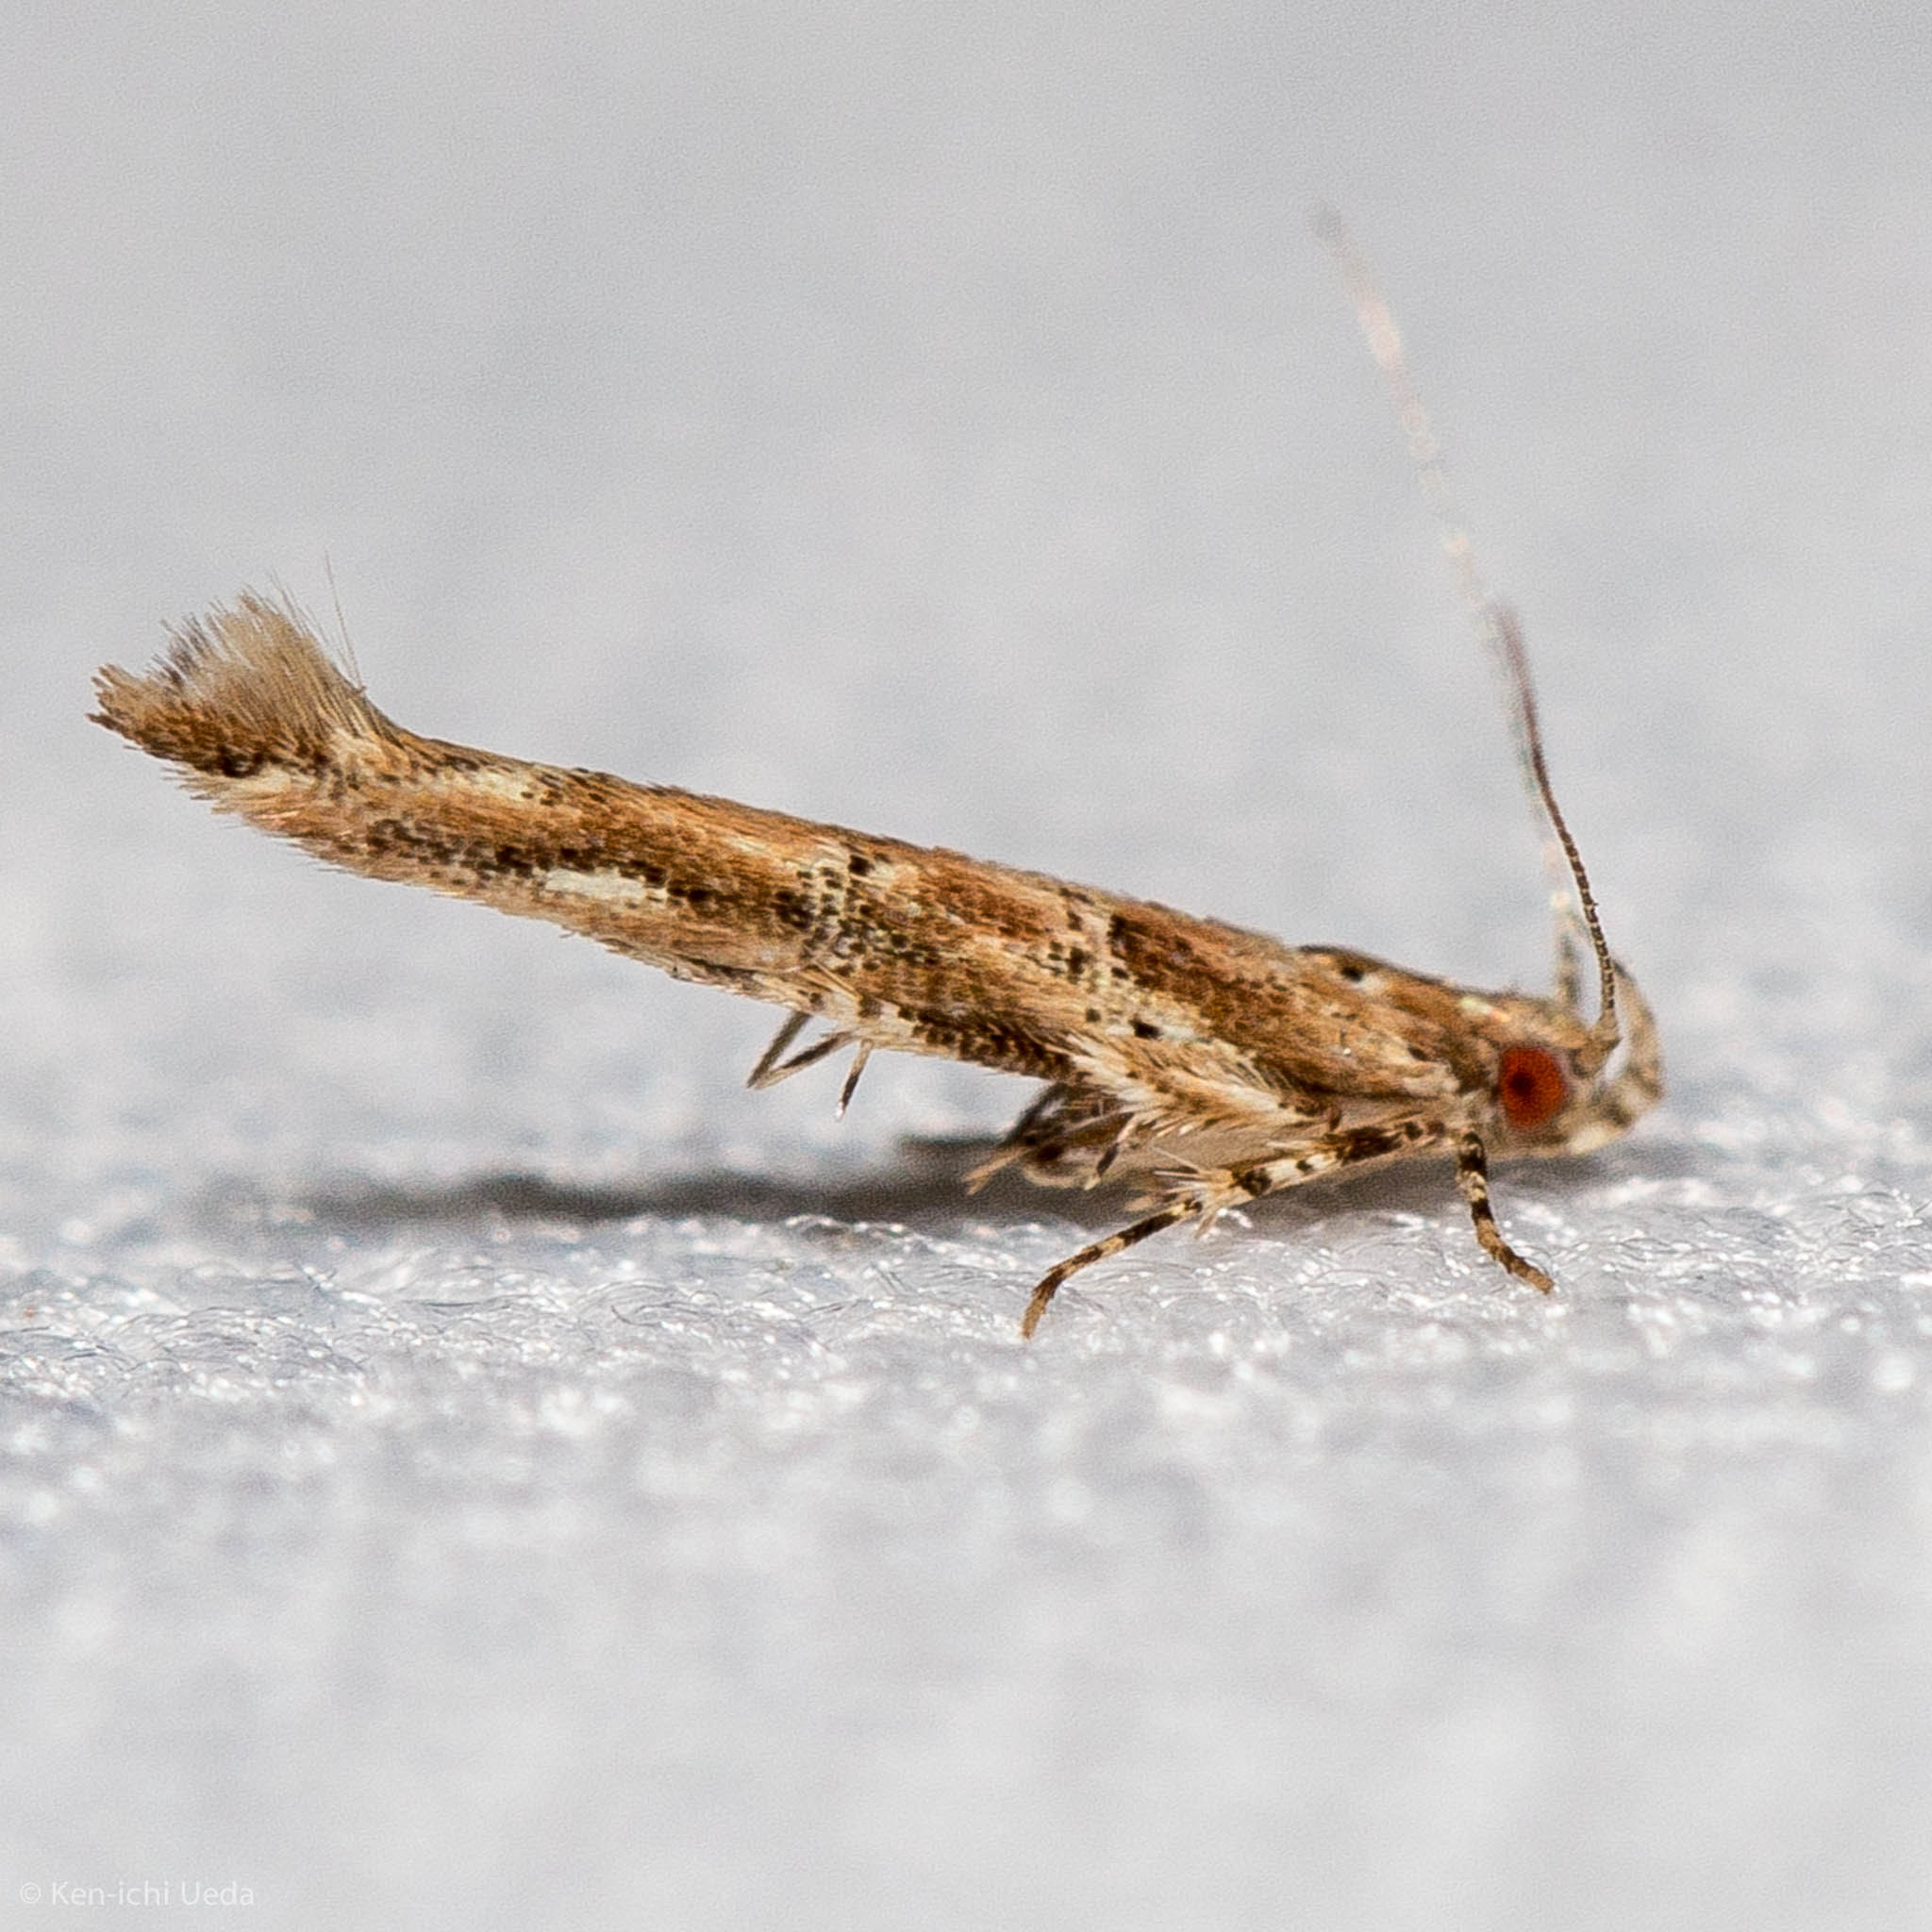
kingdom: Animalia
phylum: Arthropoda
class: Insecta
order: Lepidoptera
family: Cosmopterigidae
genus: Anatrachyntis
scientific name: Anatrachyntis badia
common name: Moth
